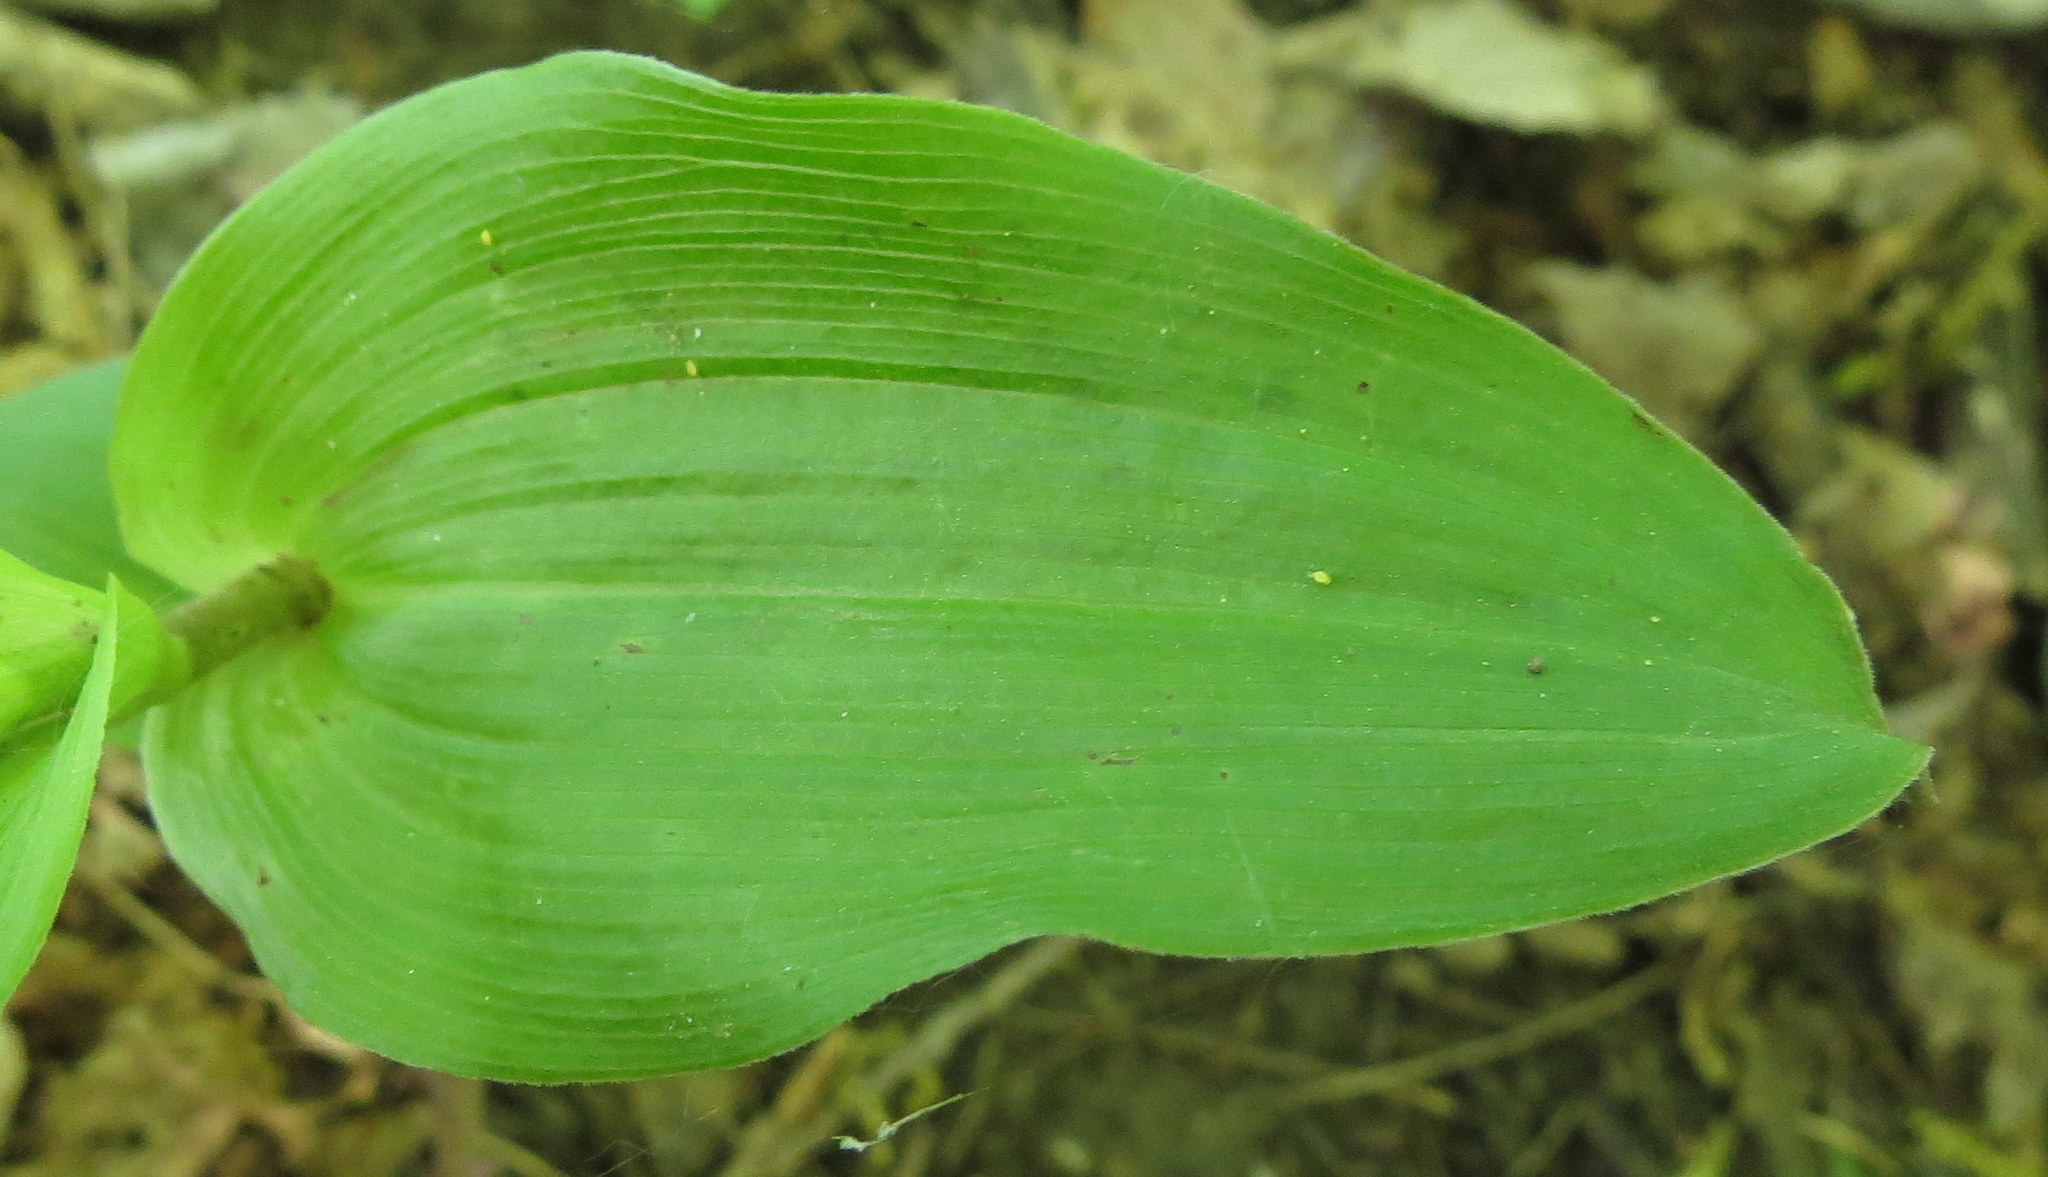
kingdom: Plantae
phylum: Tracheophyta
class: Liliopsida
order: Asparagales
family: Orchidaceae
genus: Epipactis
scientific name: Epipactis helleborine
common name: Broad-leaved helleborine
